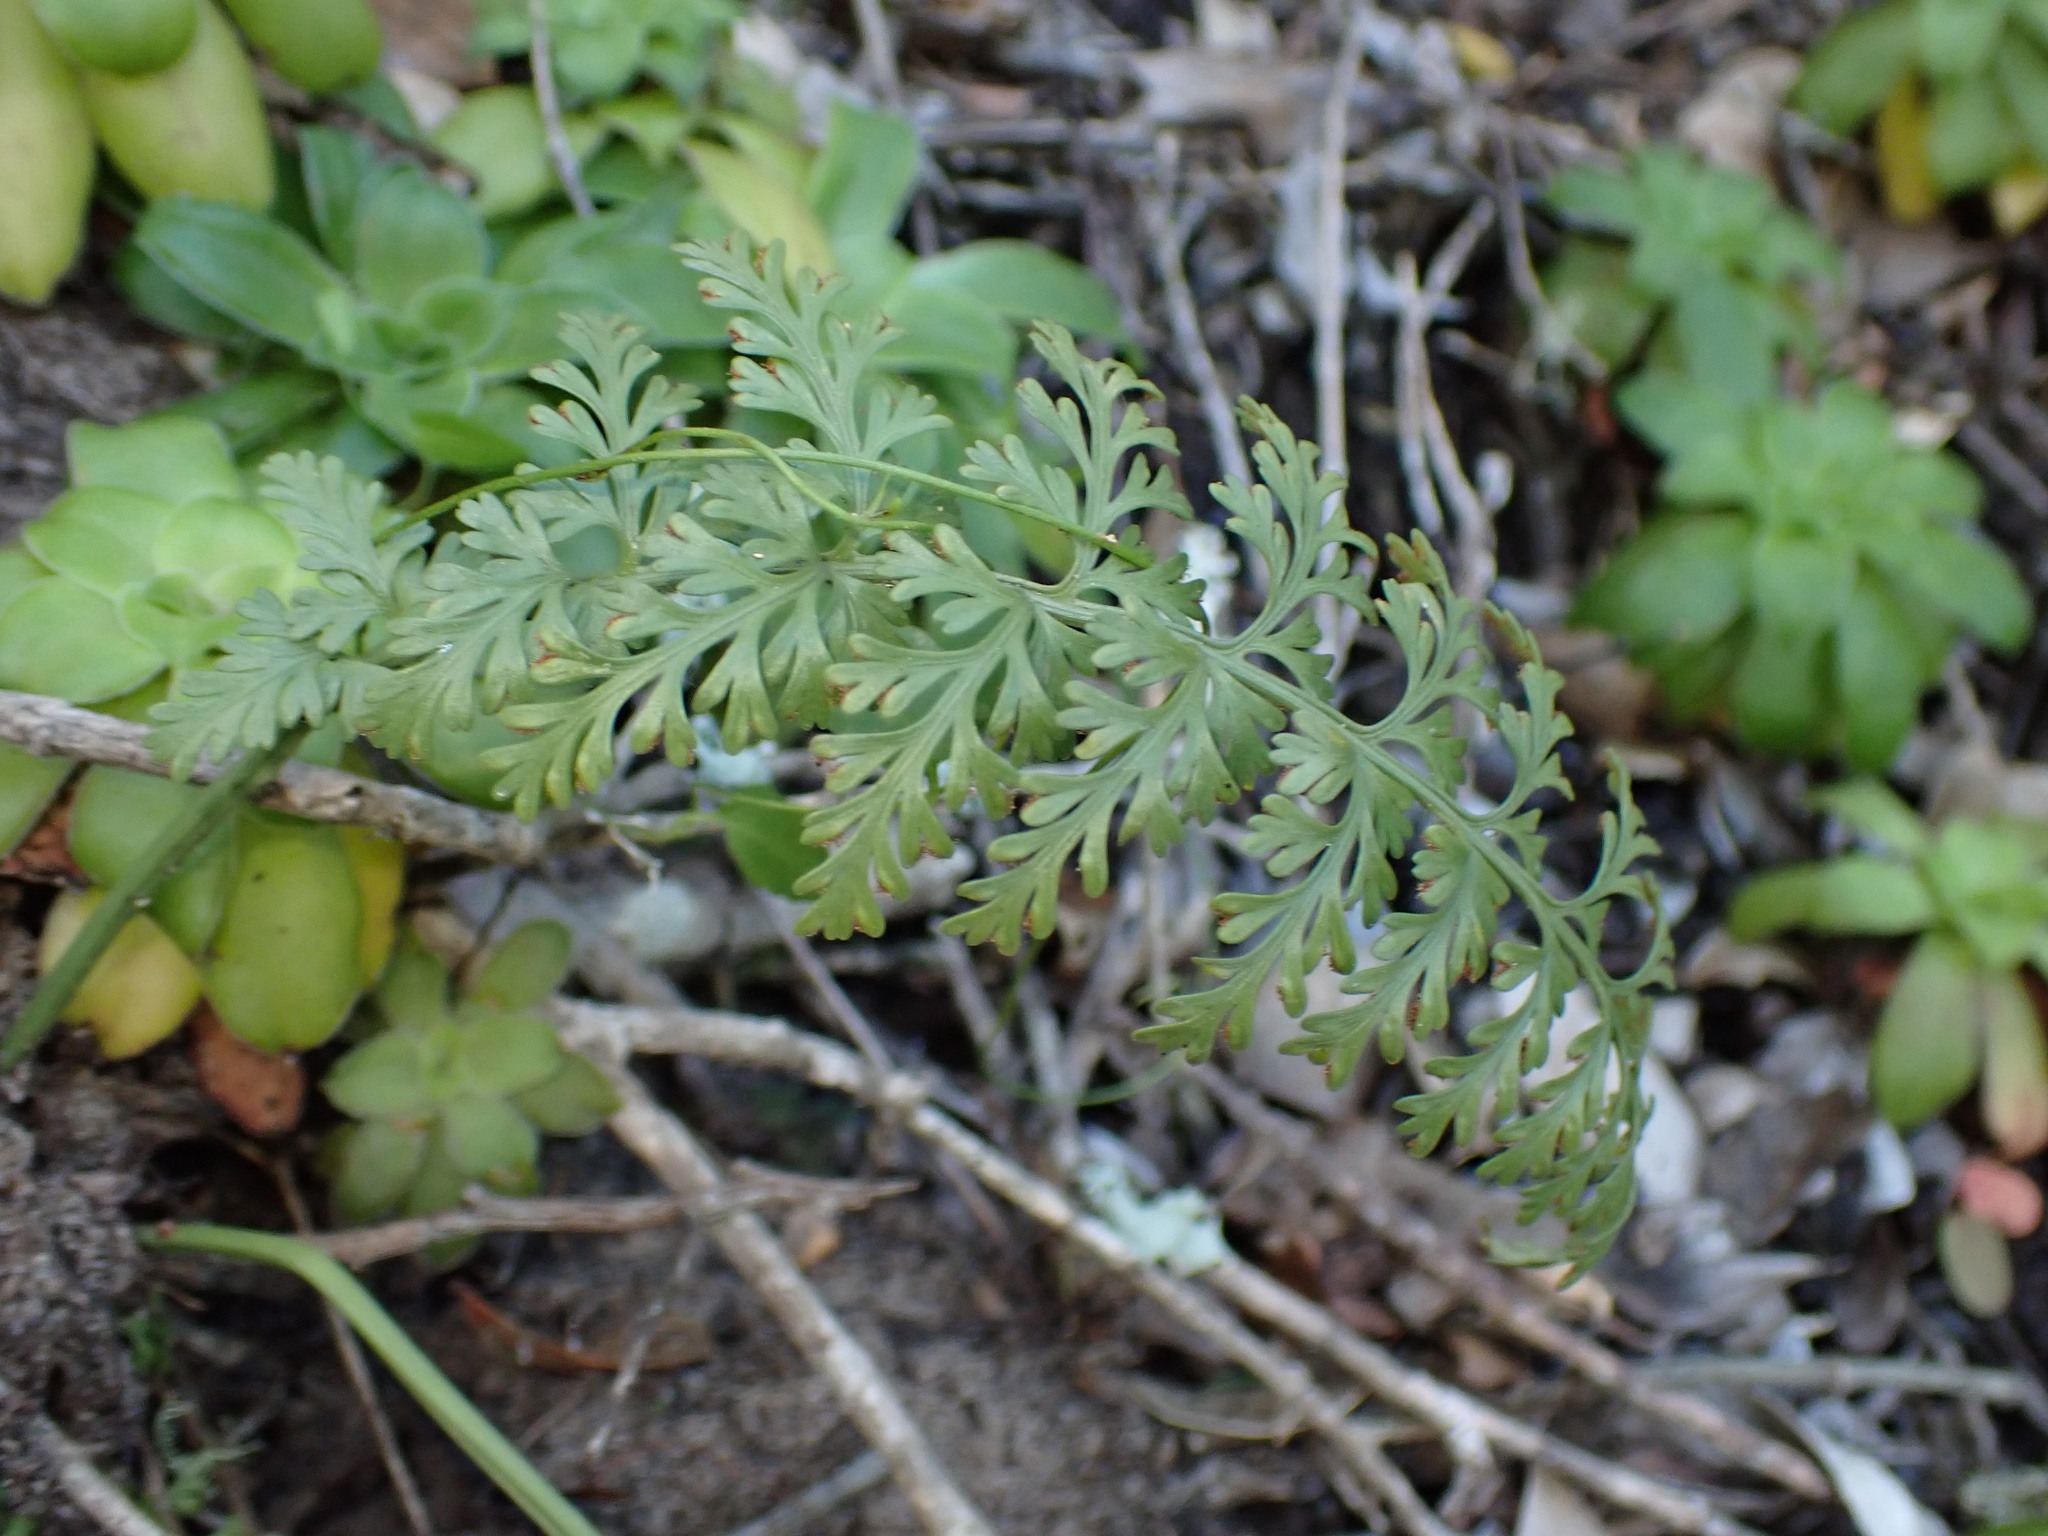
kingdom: Plantae
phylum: Tracheophyta
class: Polypodiopsida
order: Polypodiales
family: Aspleniaceae
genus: Asplenium
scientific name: Asplenium rutifolium
